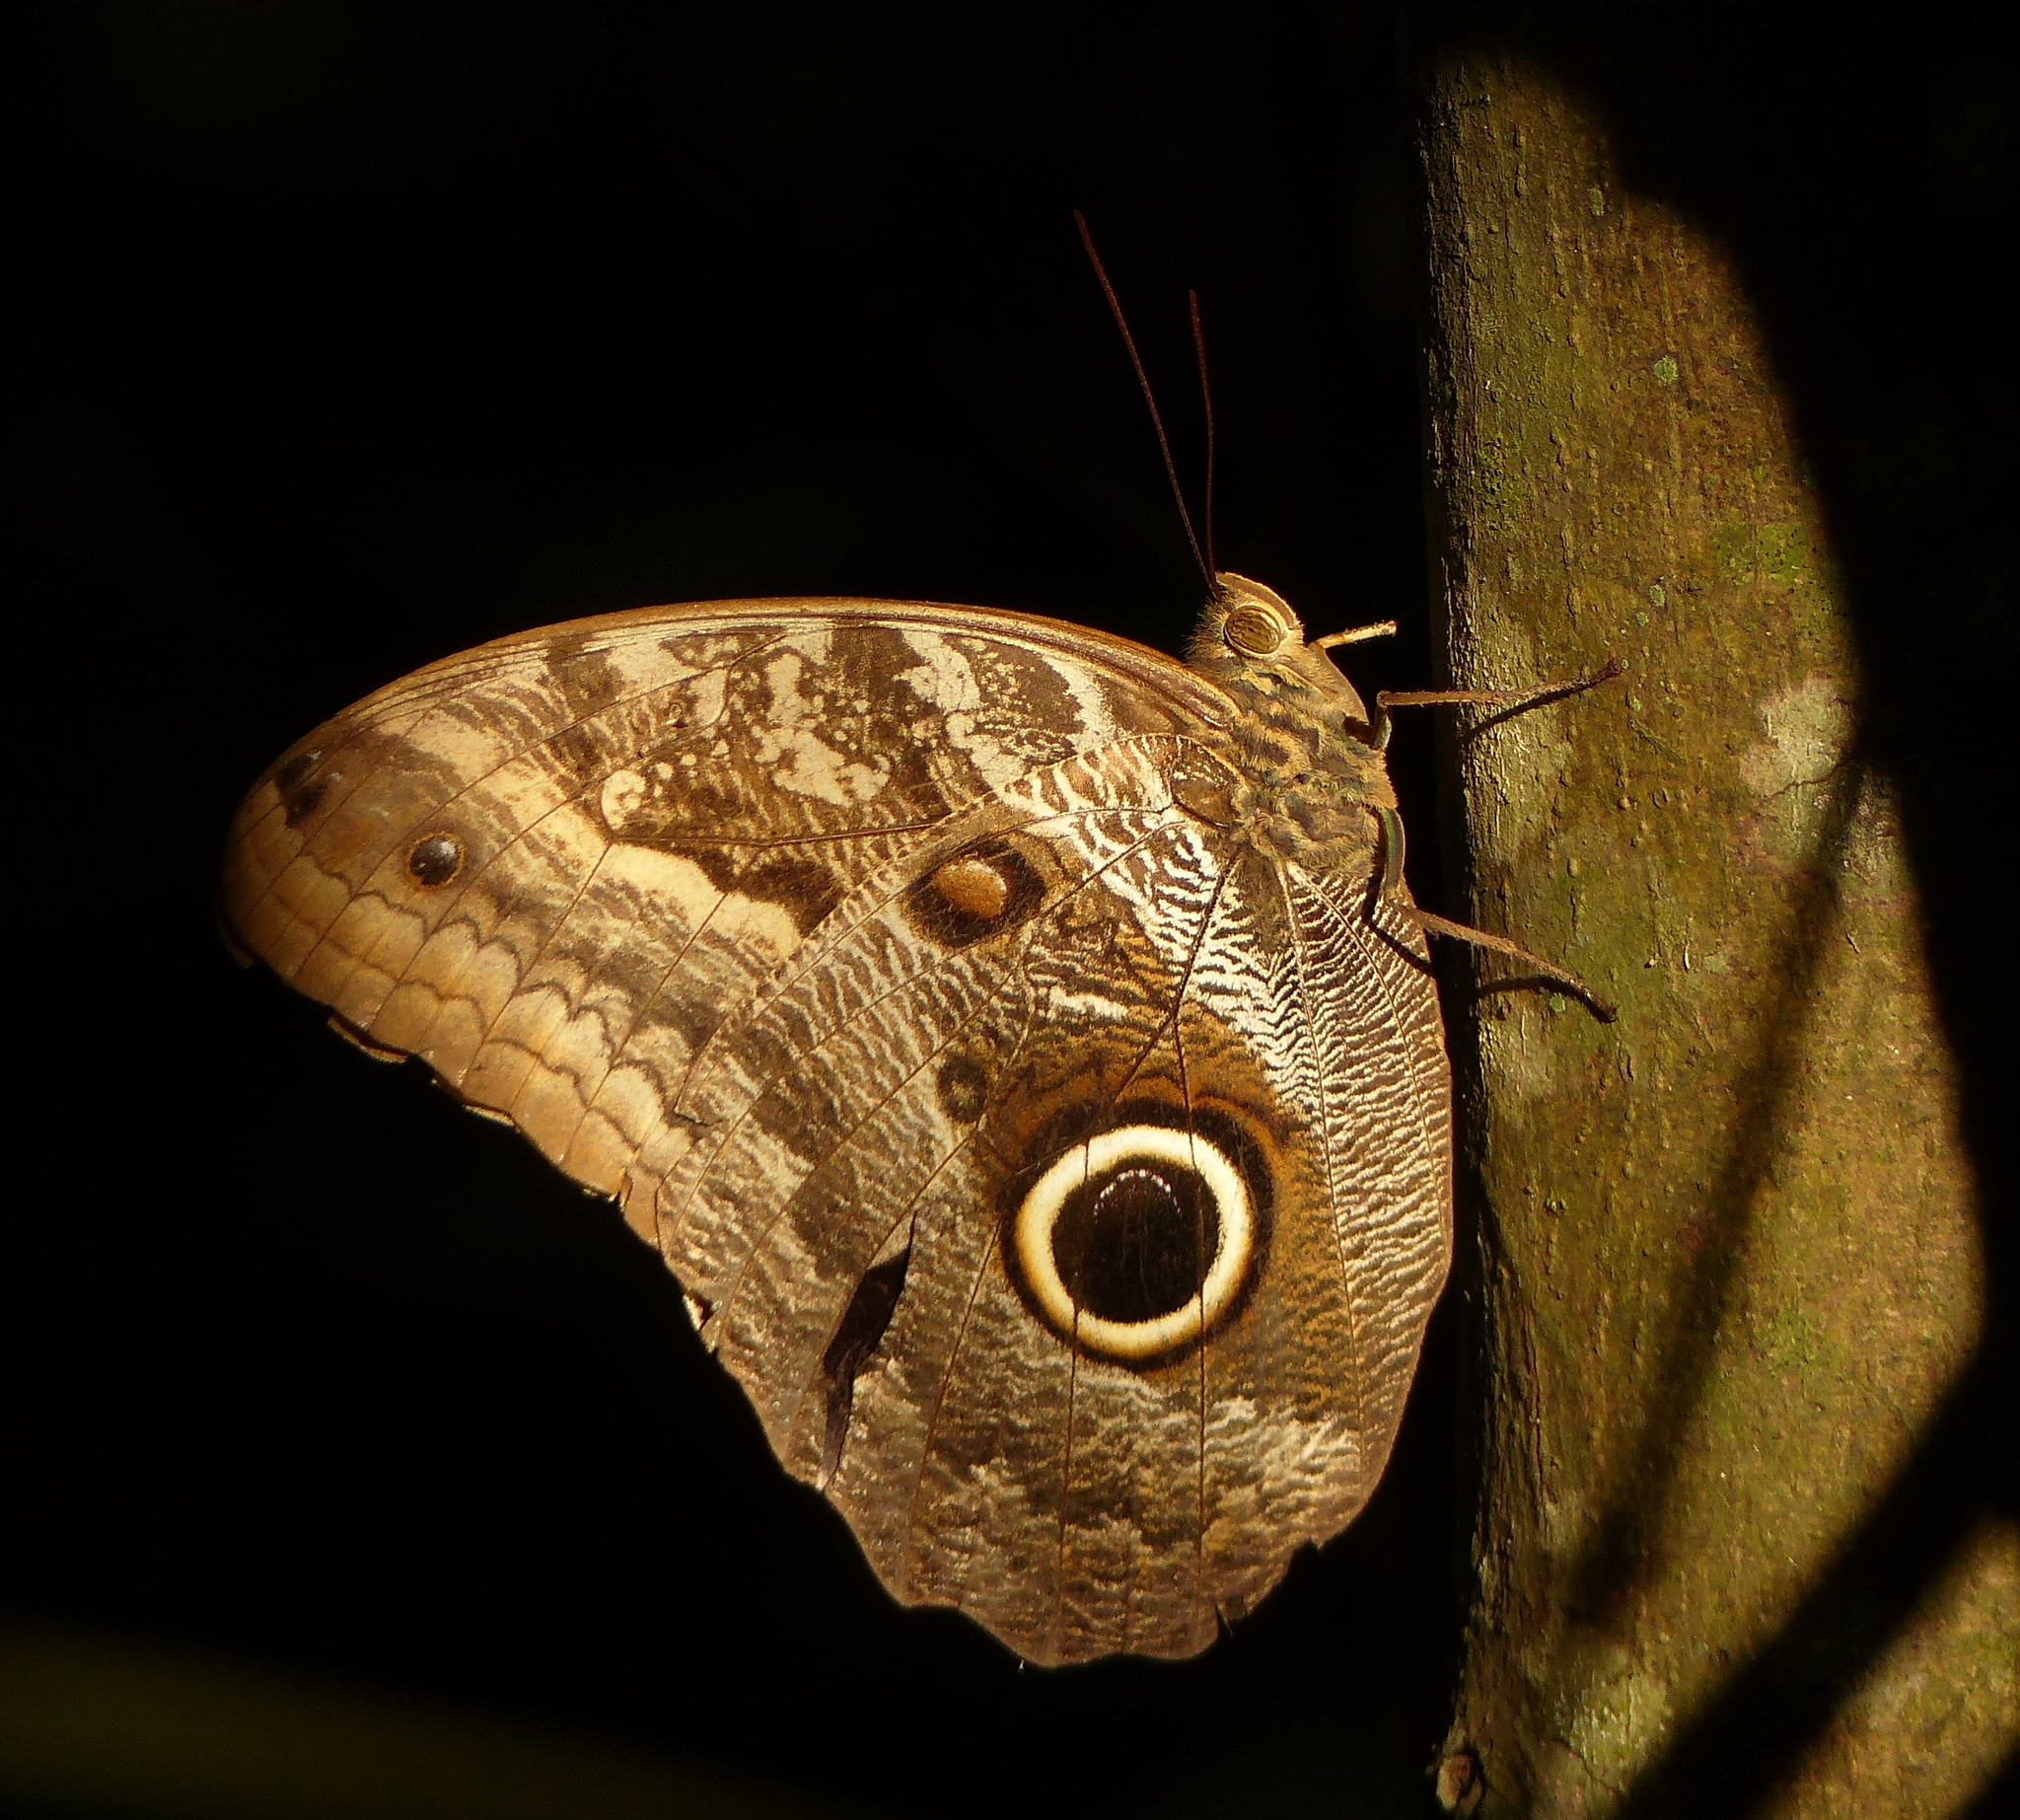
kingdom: Animalia
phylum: Arthropoda
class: Insecta
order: Lepidoptera
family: Nymphalidae
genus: Caligo
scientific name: Caligo teucer
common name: Teucer owl butterfly
